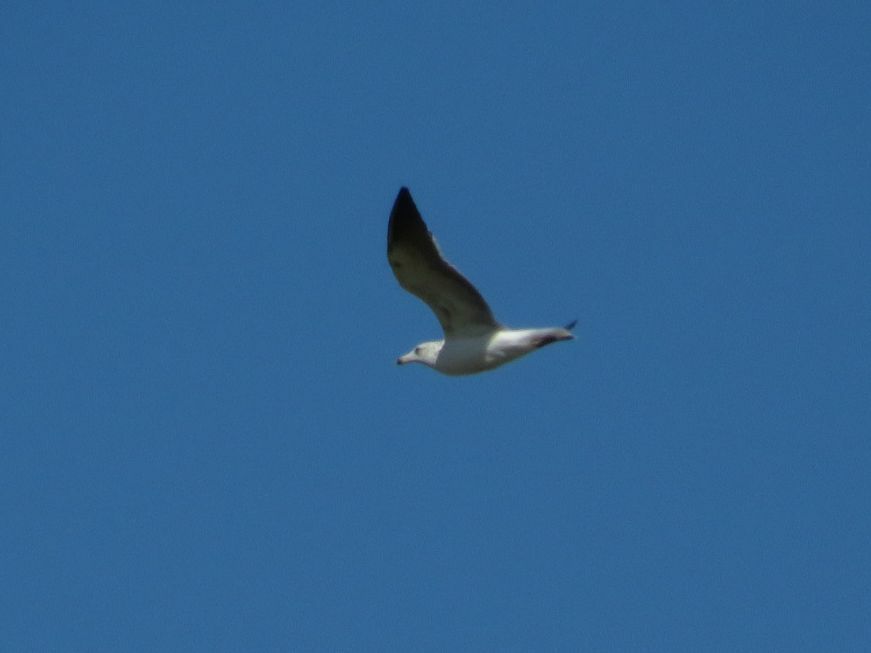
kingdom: Animalia
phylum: Chordata
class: Aves
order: Charadriiformes
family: Laridae
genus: Larus
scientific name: Larus dominicanus
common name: Kelp gull
